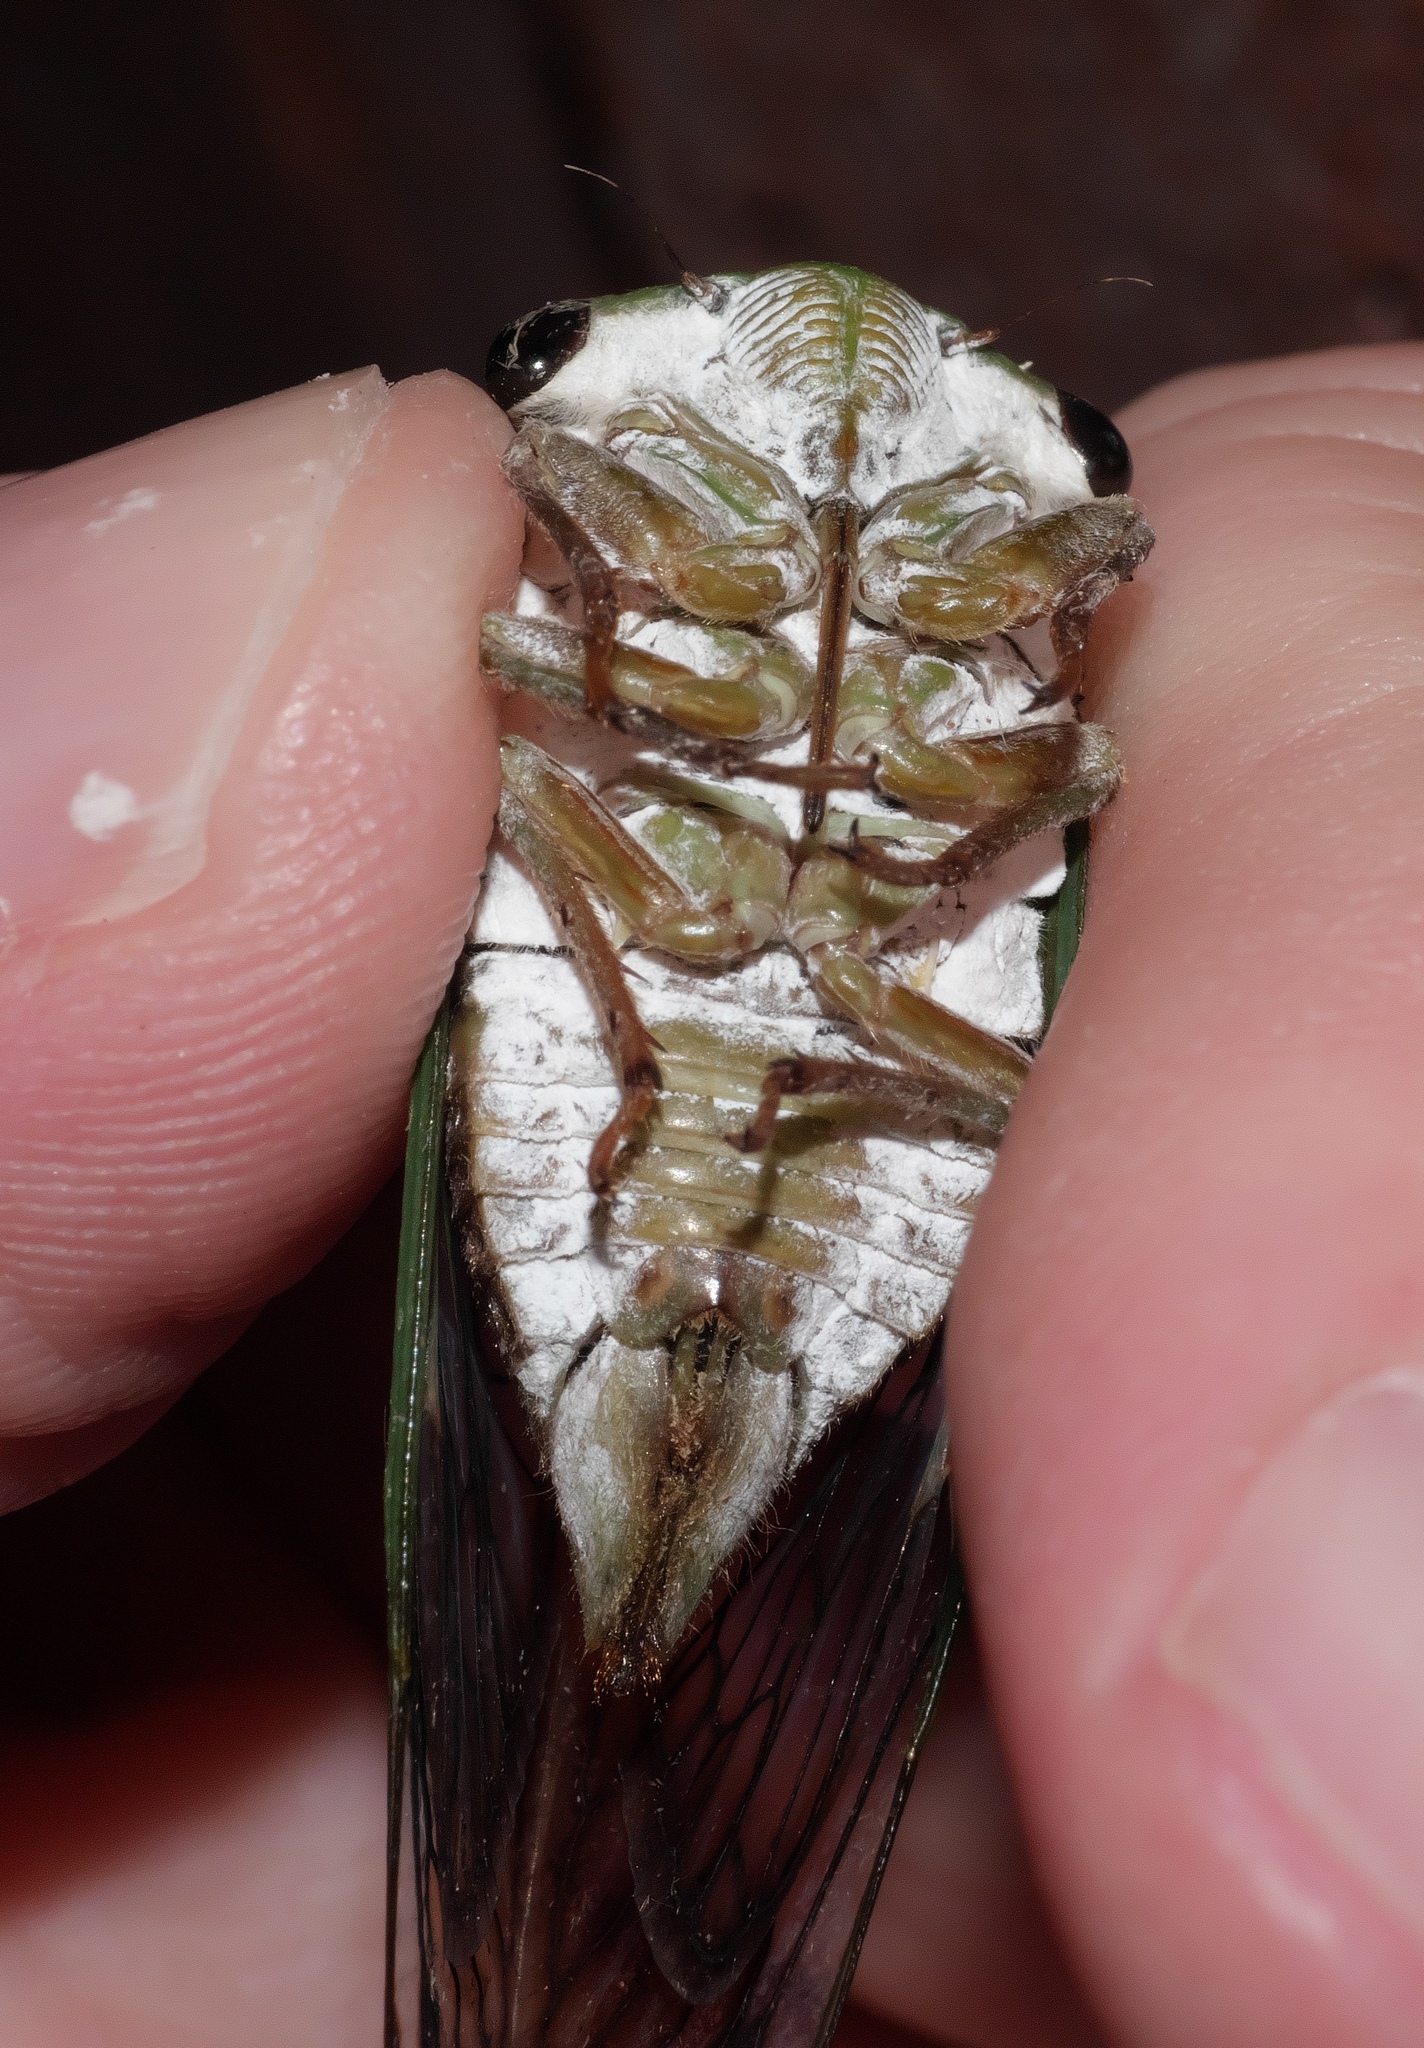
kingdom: Animalia
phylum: Arthropoda
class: Insecta
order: Hemiptera
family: Cicadidae
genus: Neotibicen
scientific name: Neotibicen superbus
